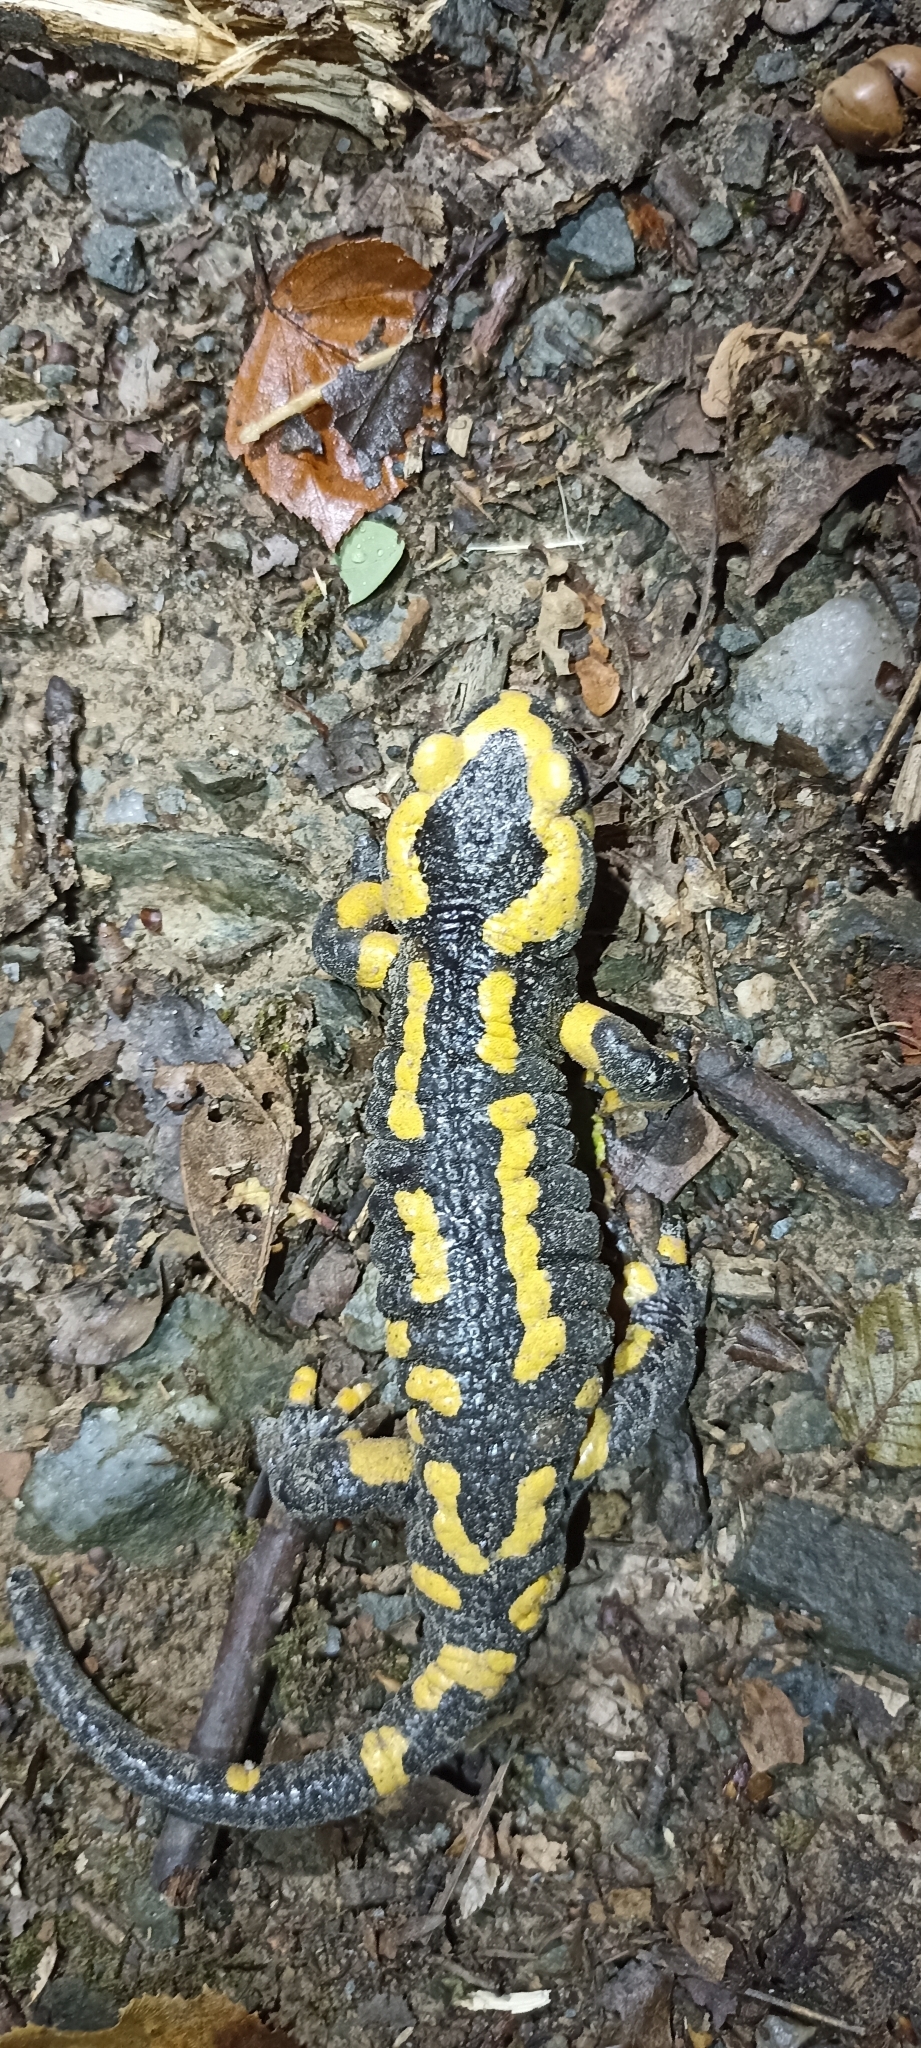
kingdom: Animalia
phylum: Chordata
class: Amphibia
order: Caudata
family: Salamandridae
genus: Salamandra
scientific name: Salamandra salamandra
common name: Fire salamander
